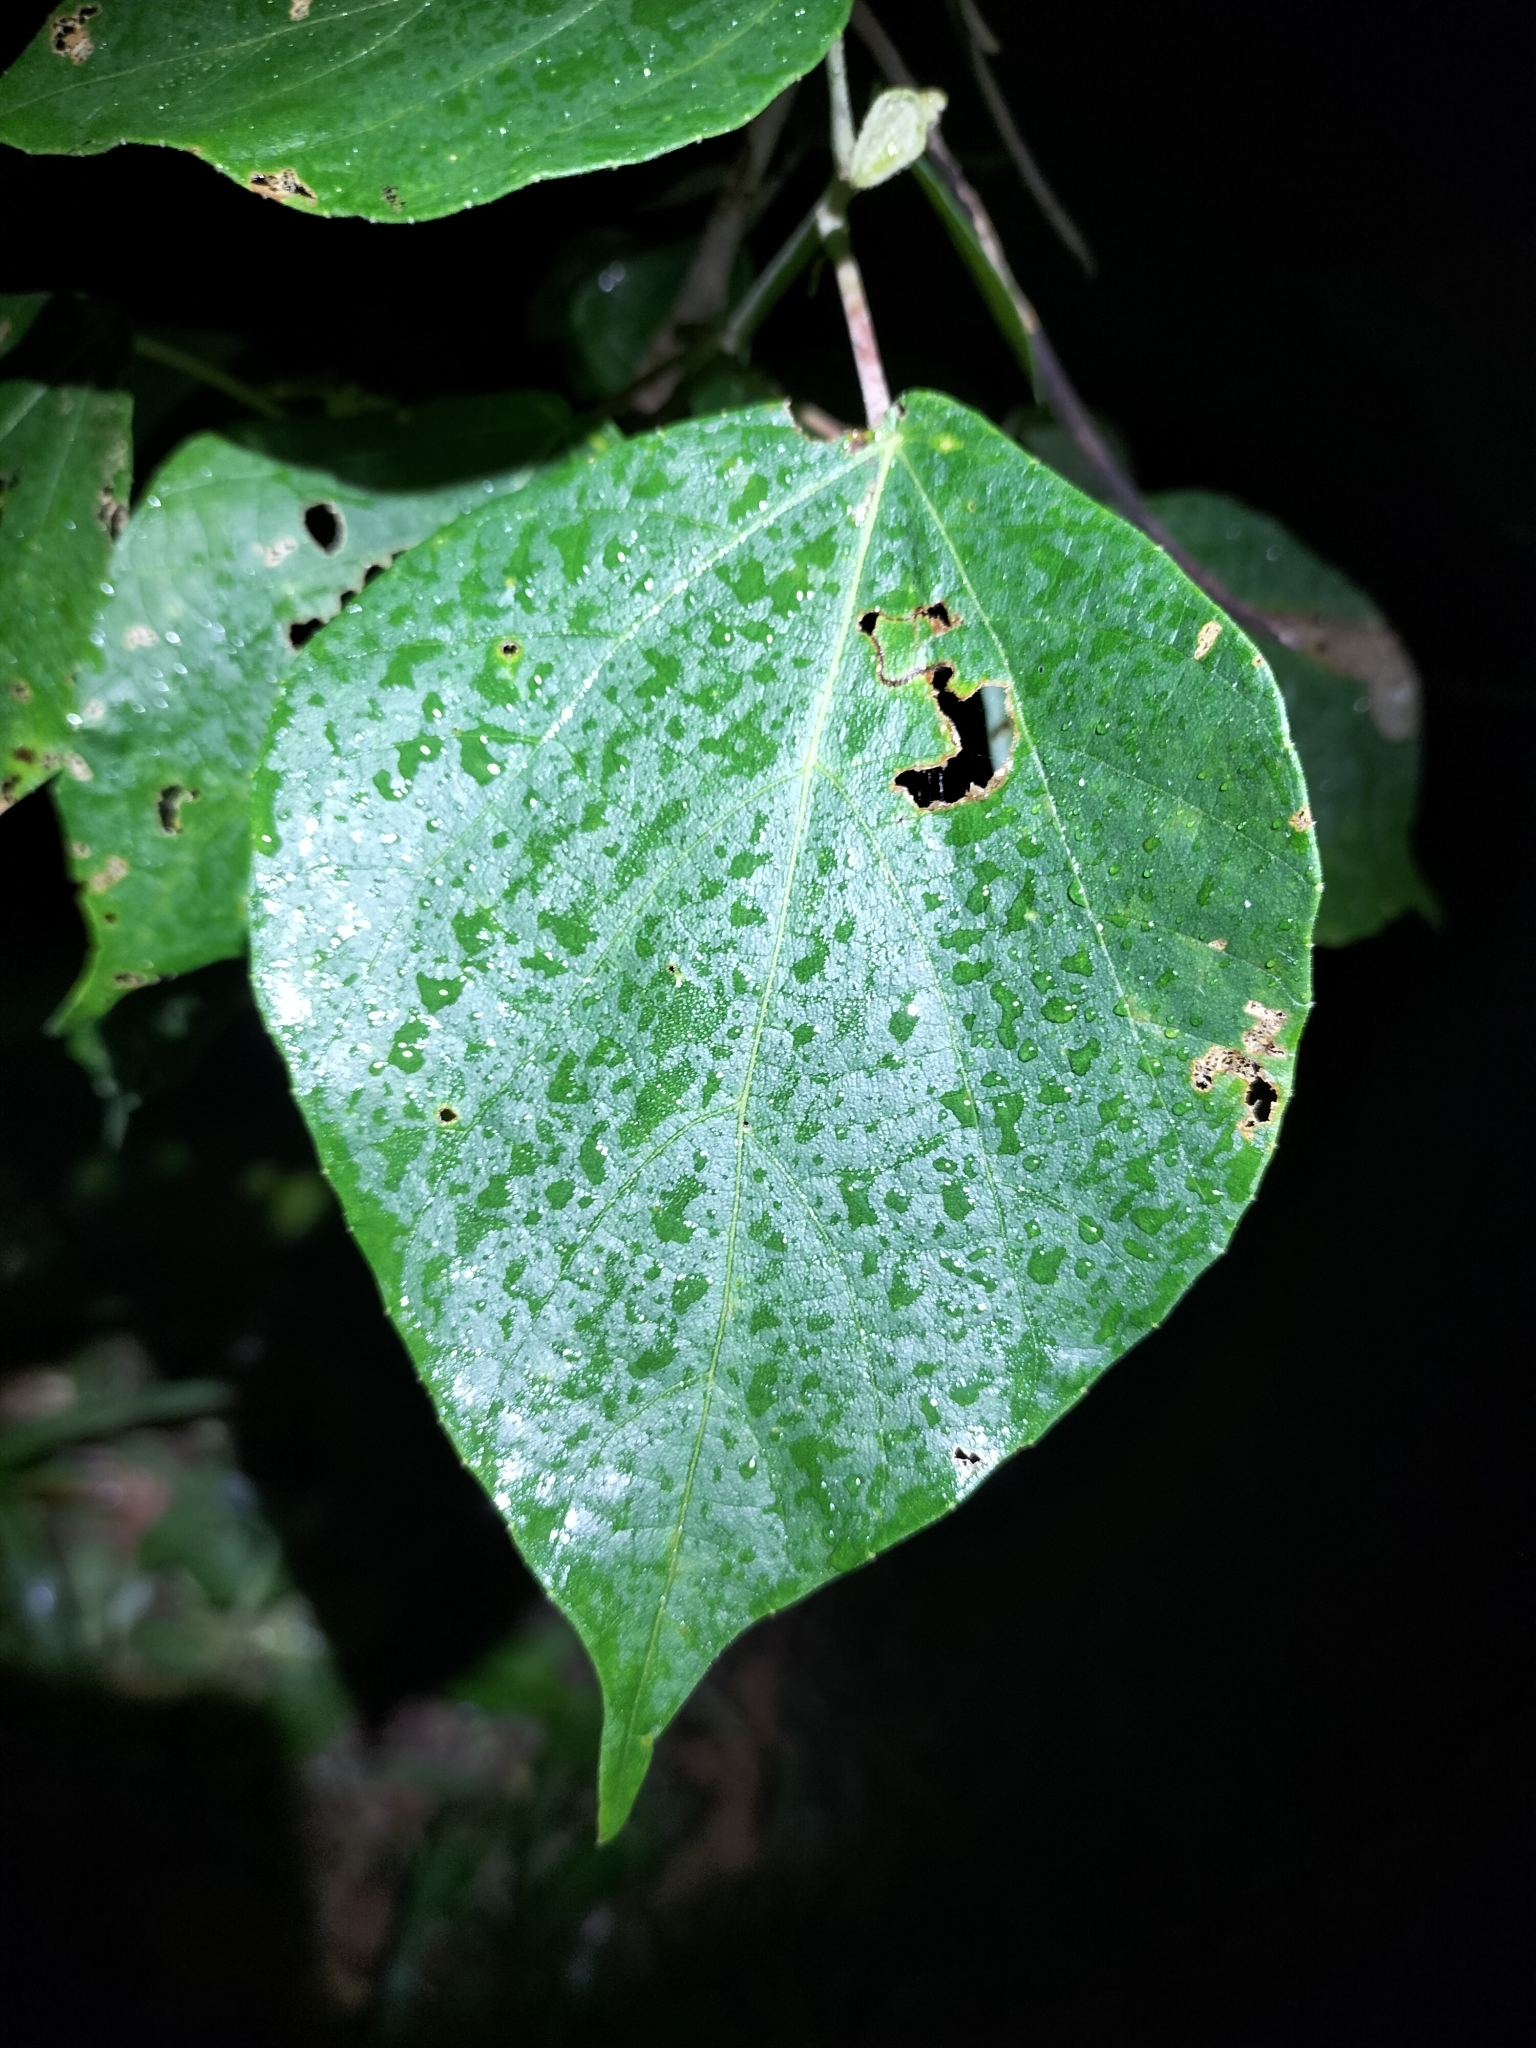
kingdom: Animalia
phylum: Arthropoda
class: Insecta
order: Orthoptera
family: Tettigoniidae
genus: Mastighaphoides
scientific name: Mastighaphoides tuberculatus
